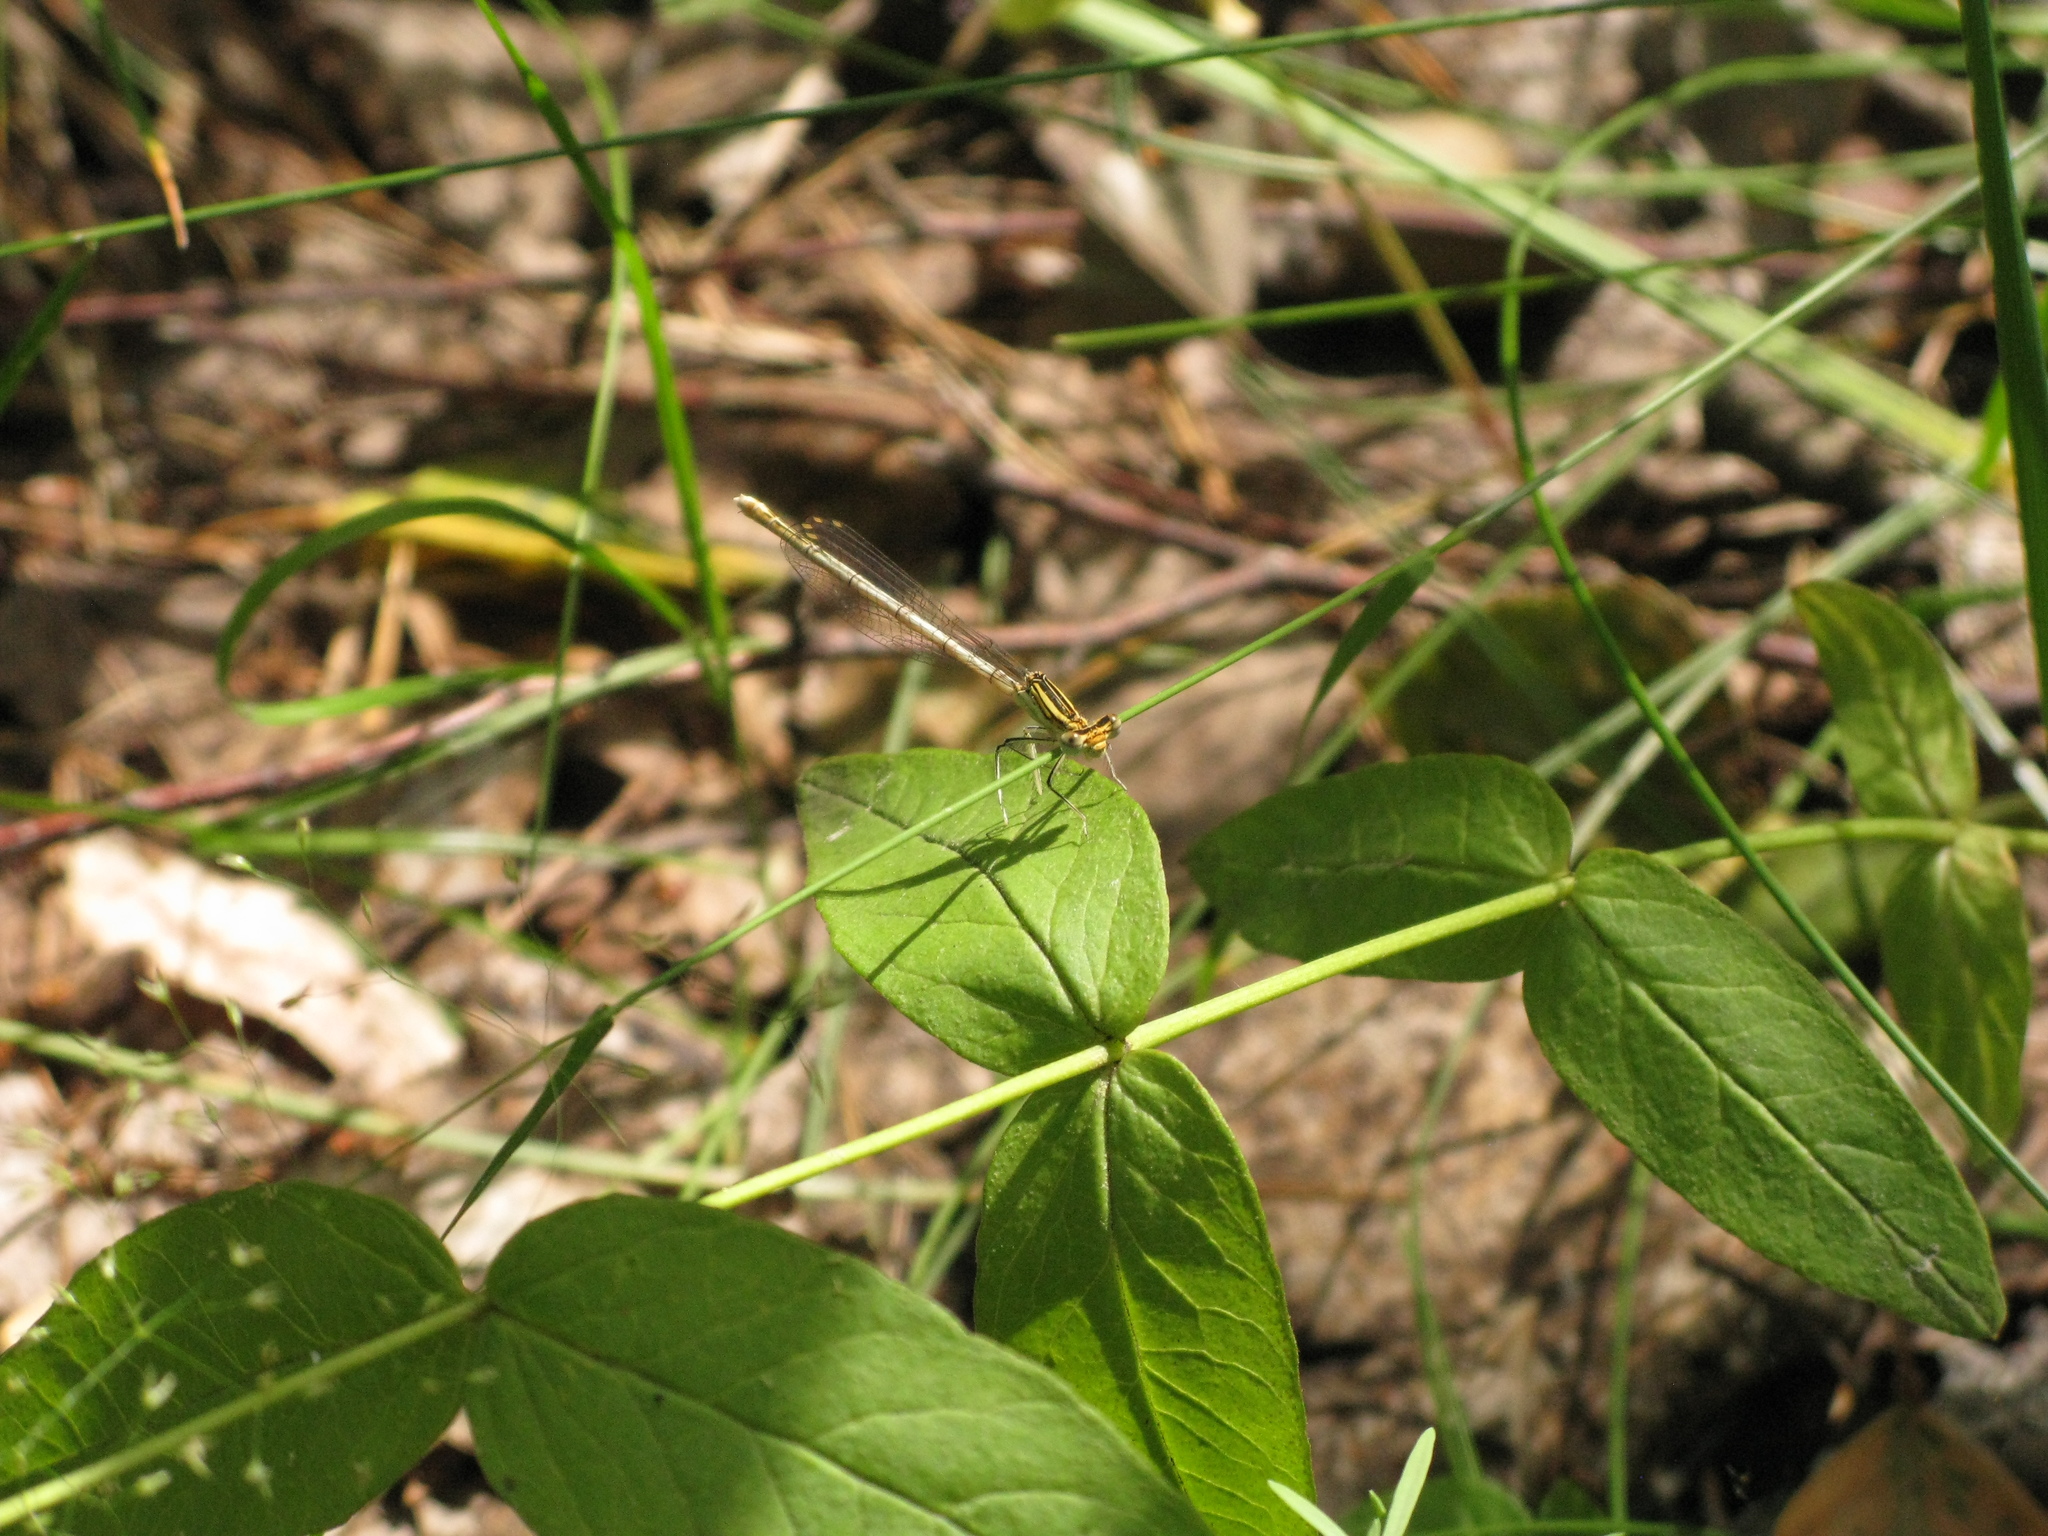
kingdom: Animalia
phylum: Arthropoda
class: Insecta
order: Odonata
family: Platycnemididae
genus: Platycnemis
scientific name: Platycnemis pennipes
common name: White-legged damselfly
